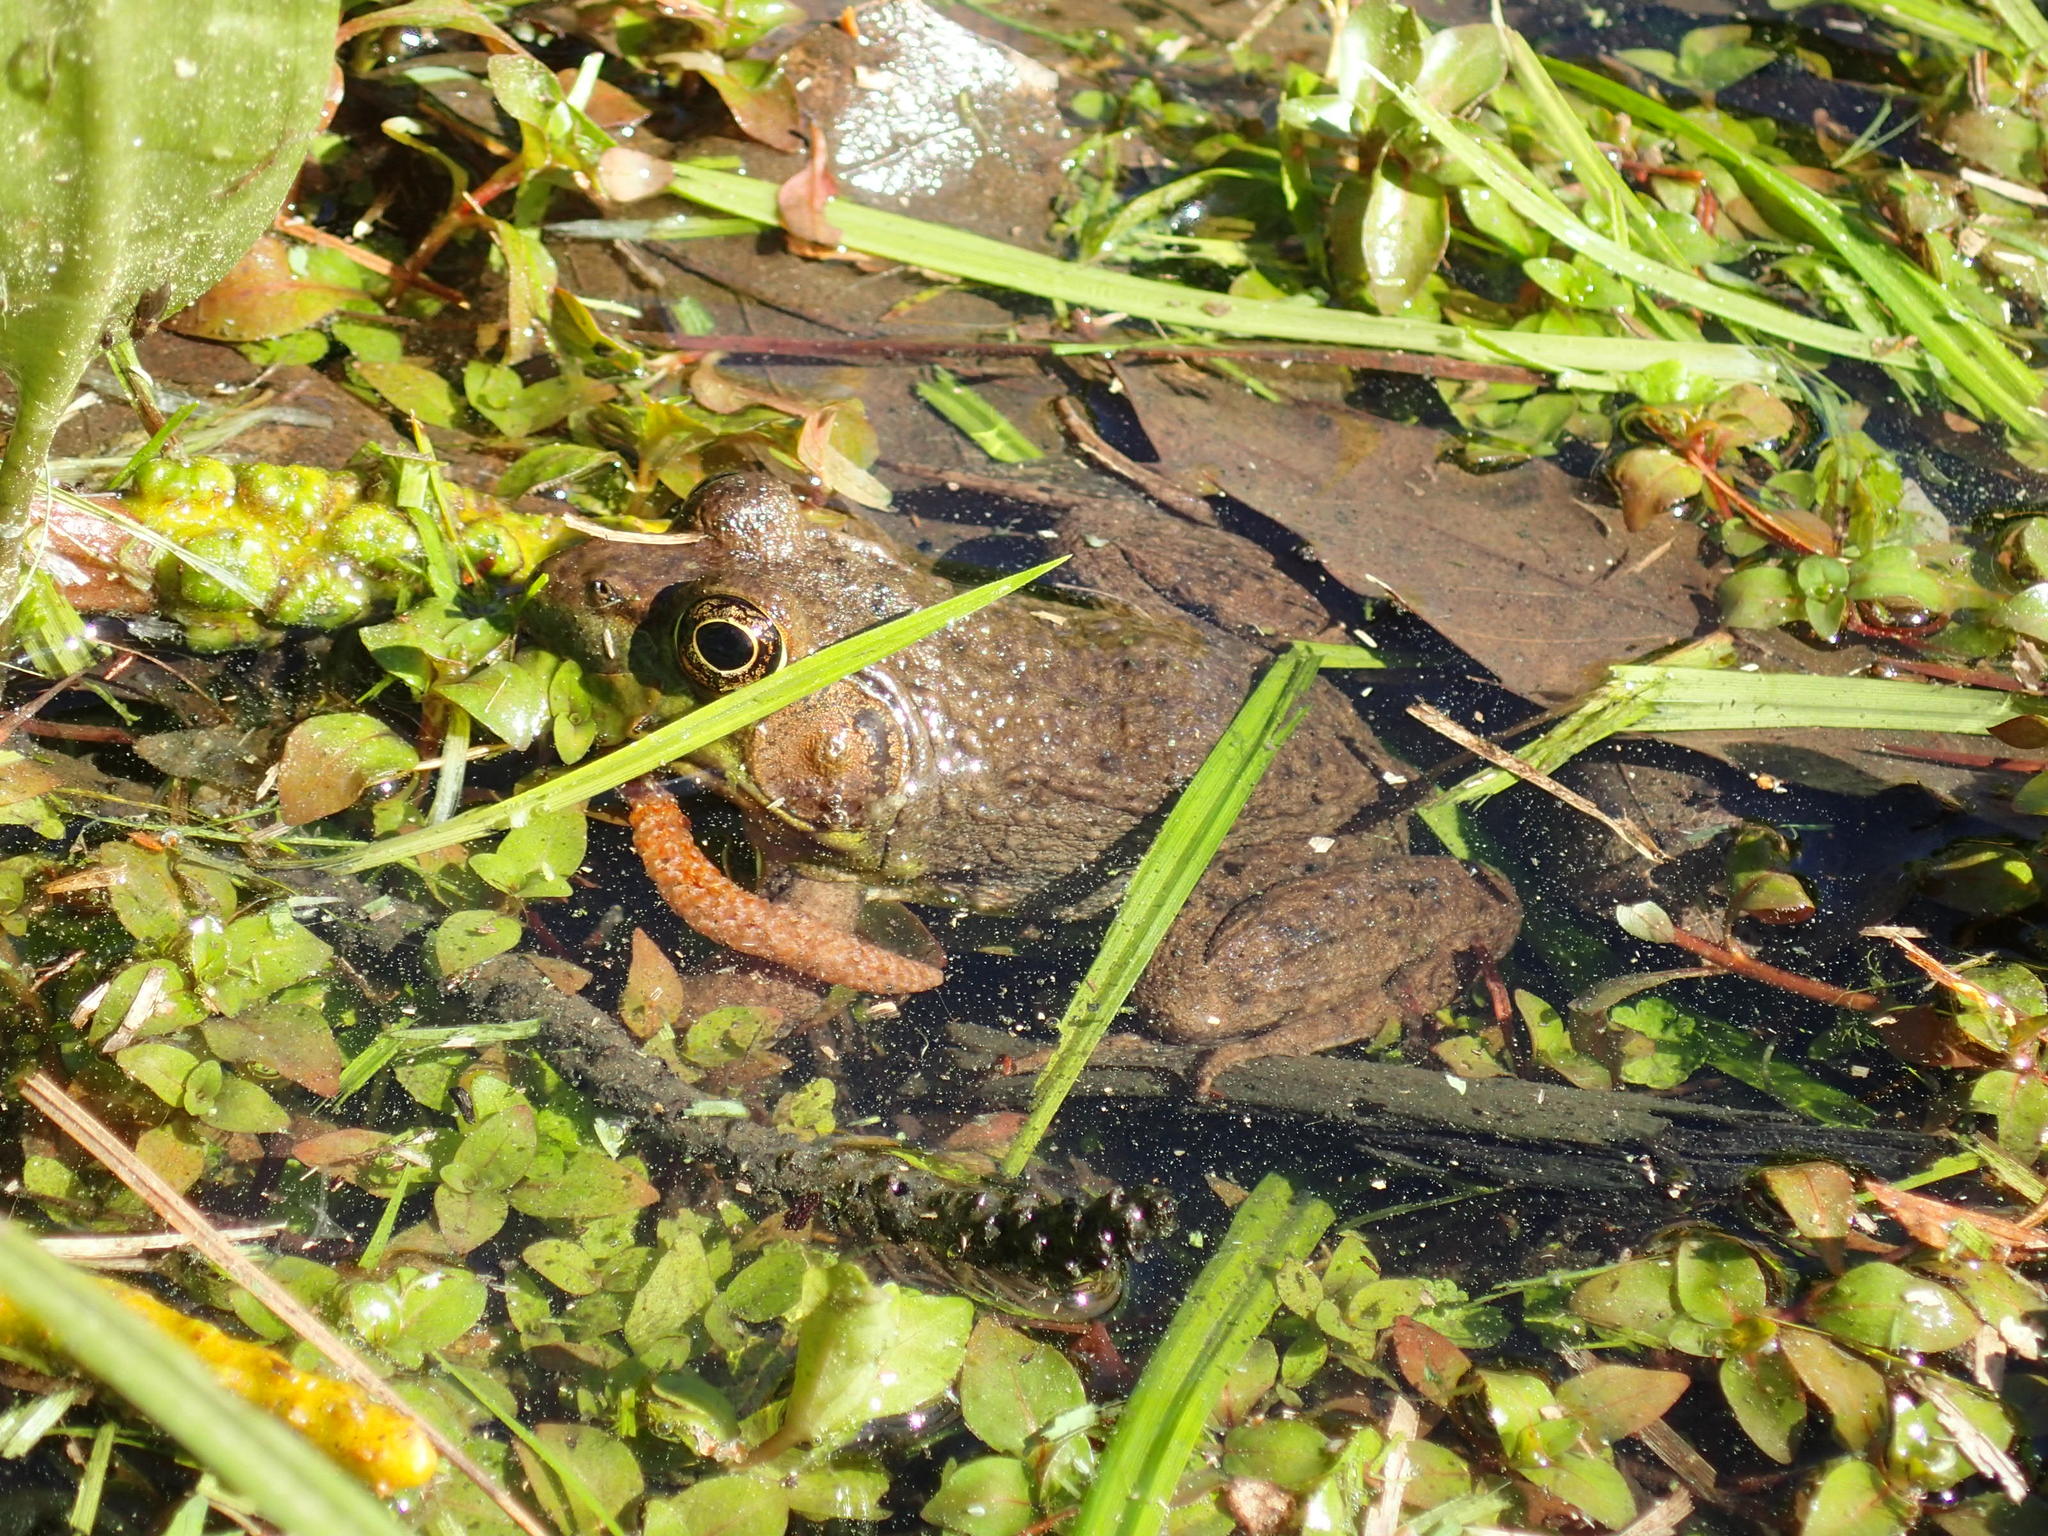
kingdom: Animalia
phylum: Chordata
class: Amphibia
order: Anura
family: Ranidae
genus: Lithobates
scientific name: Lithobates clamitans
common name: Green frog
